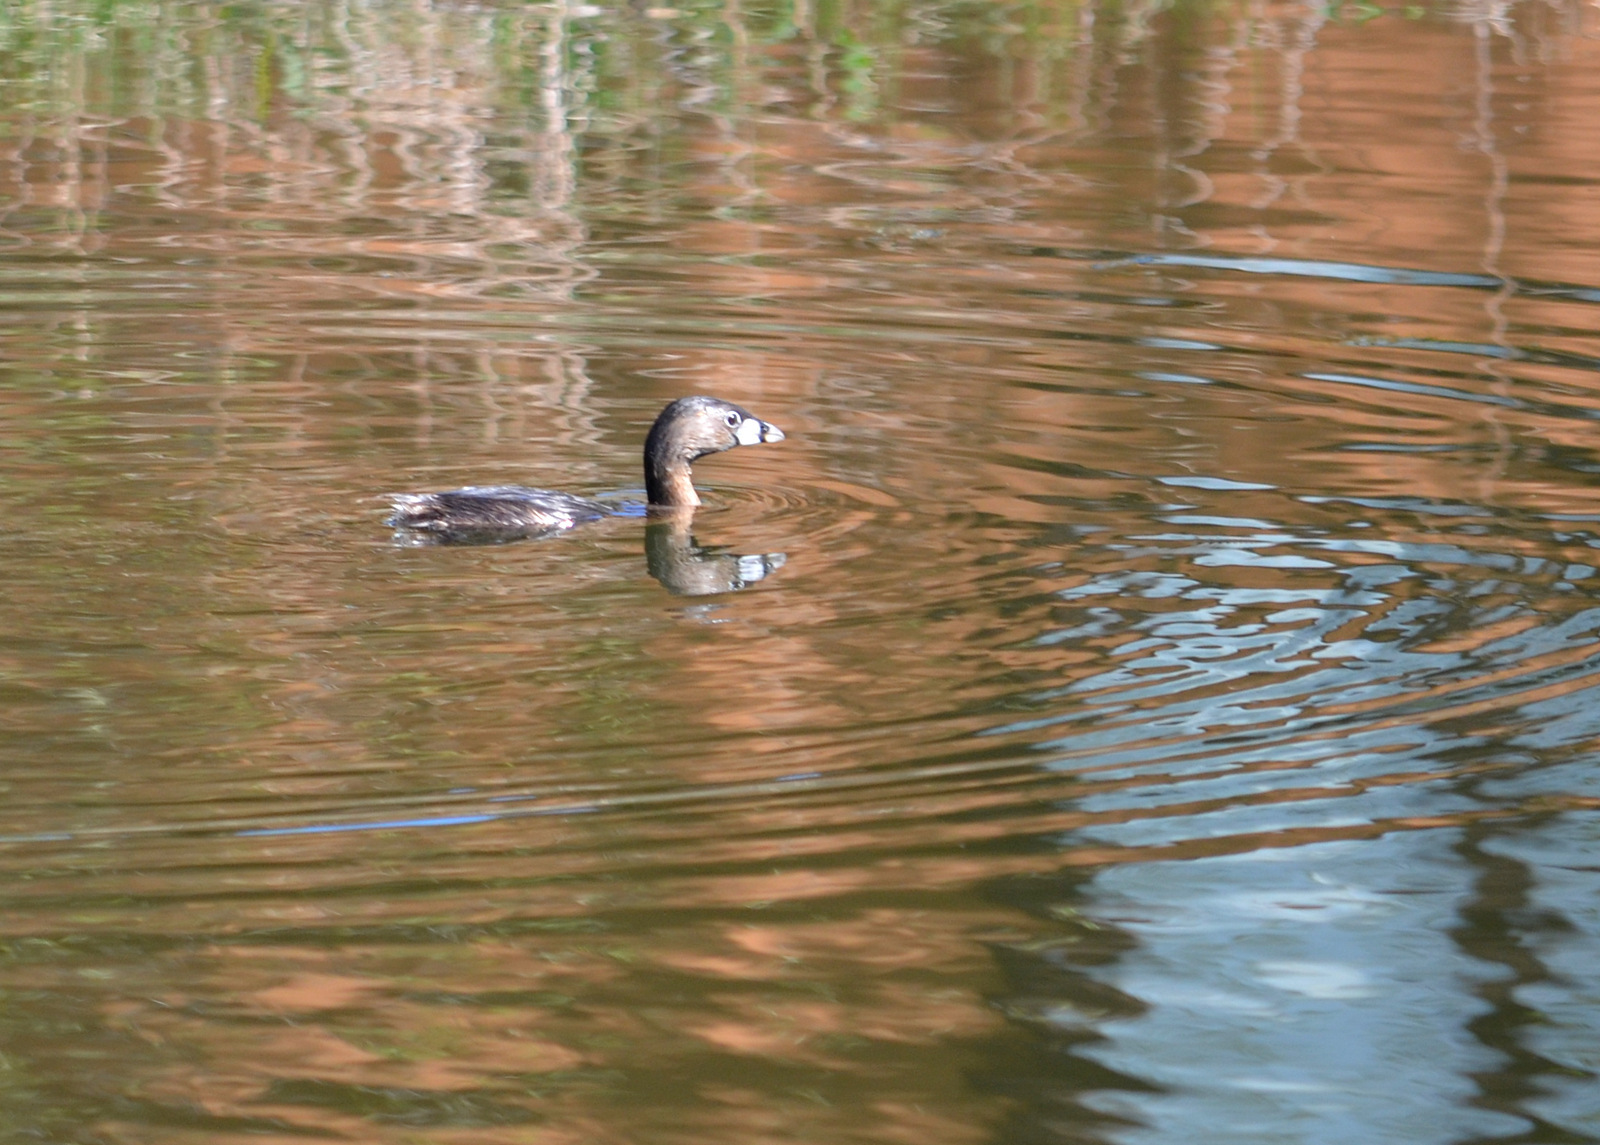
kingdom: Animalia
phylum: Chordata
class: Aves
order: Podicipediformes
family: Podicipedidae
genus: Podilymbus
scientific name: Podilymbus podiceps
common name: Pied-billed grebe
